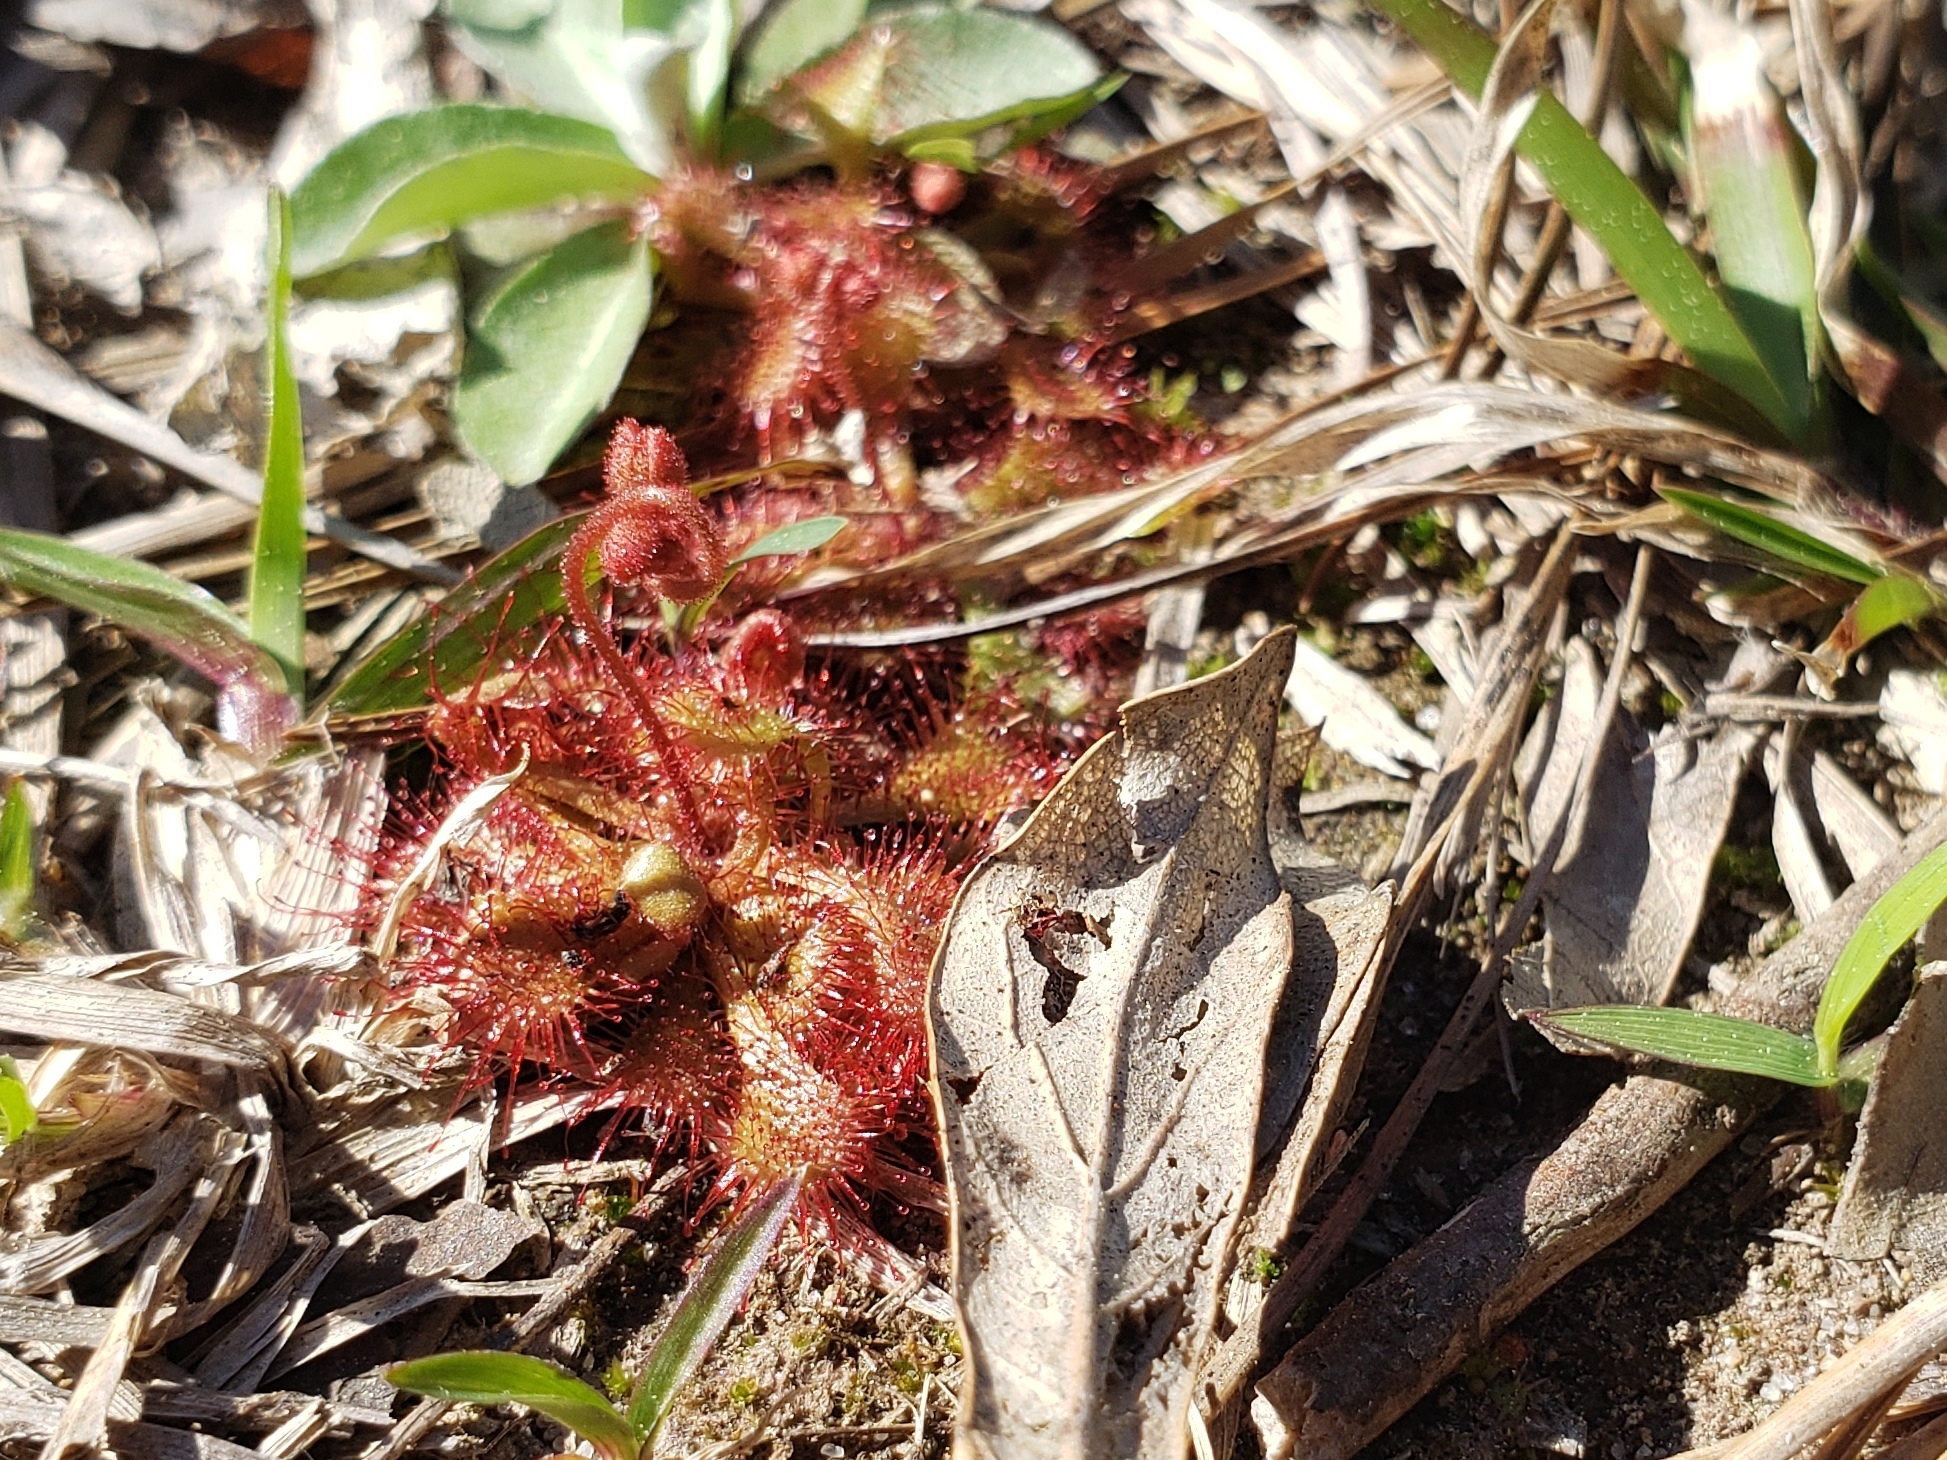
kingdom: Plantae
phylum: Tracheophyta
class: Magnoliopsida
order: Caryophyllales
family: Droseraceae
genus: Drosera
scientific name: Drosera brevifolia
